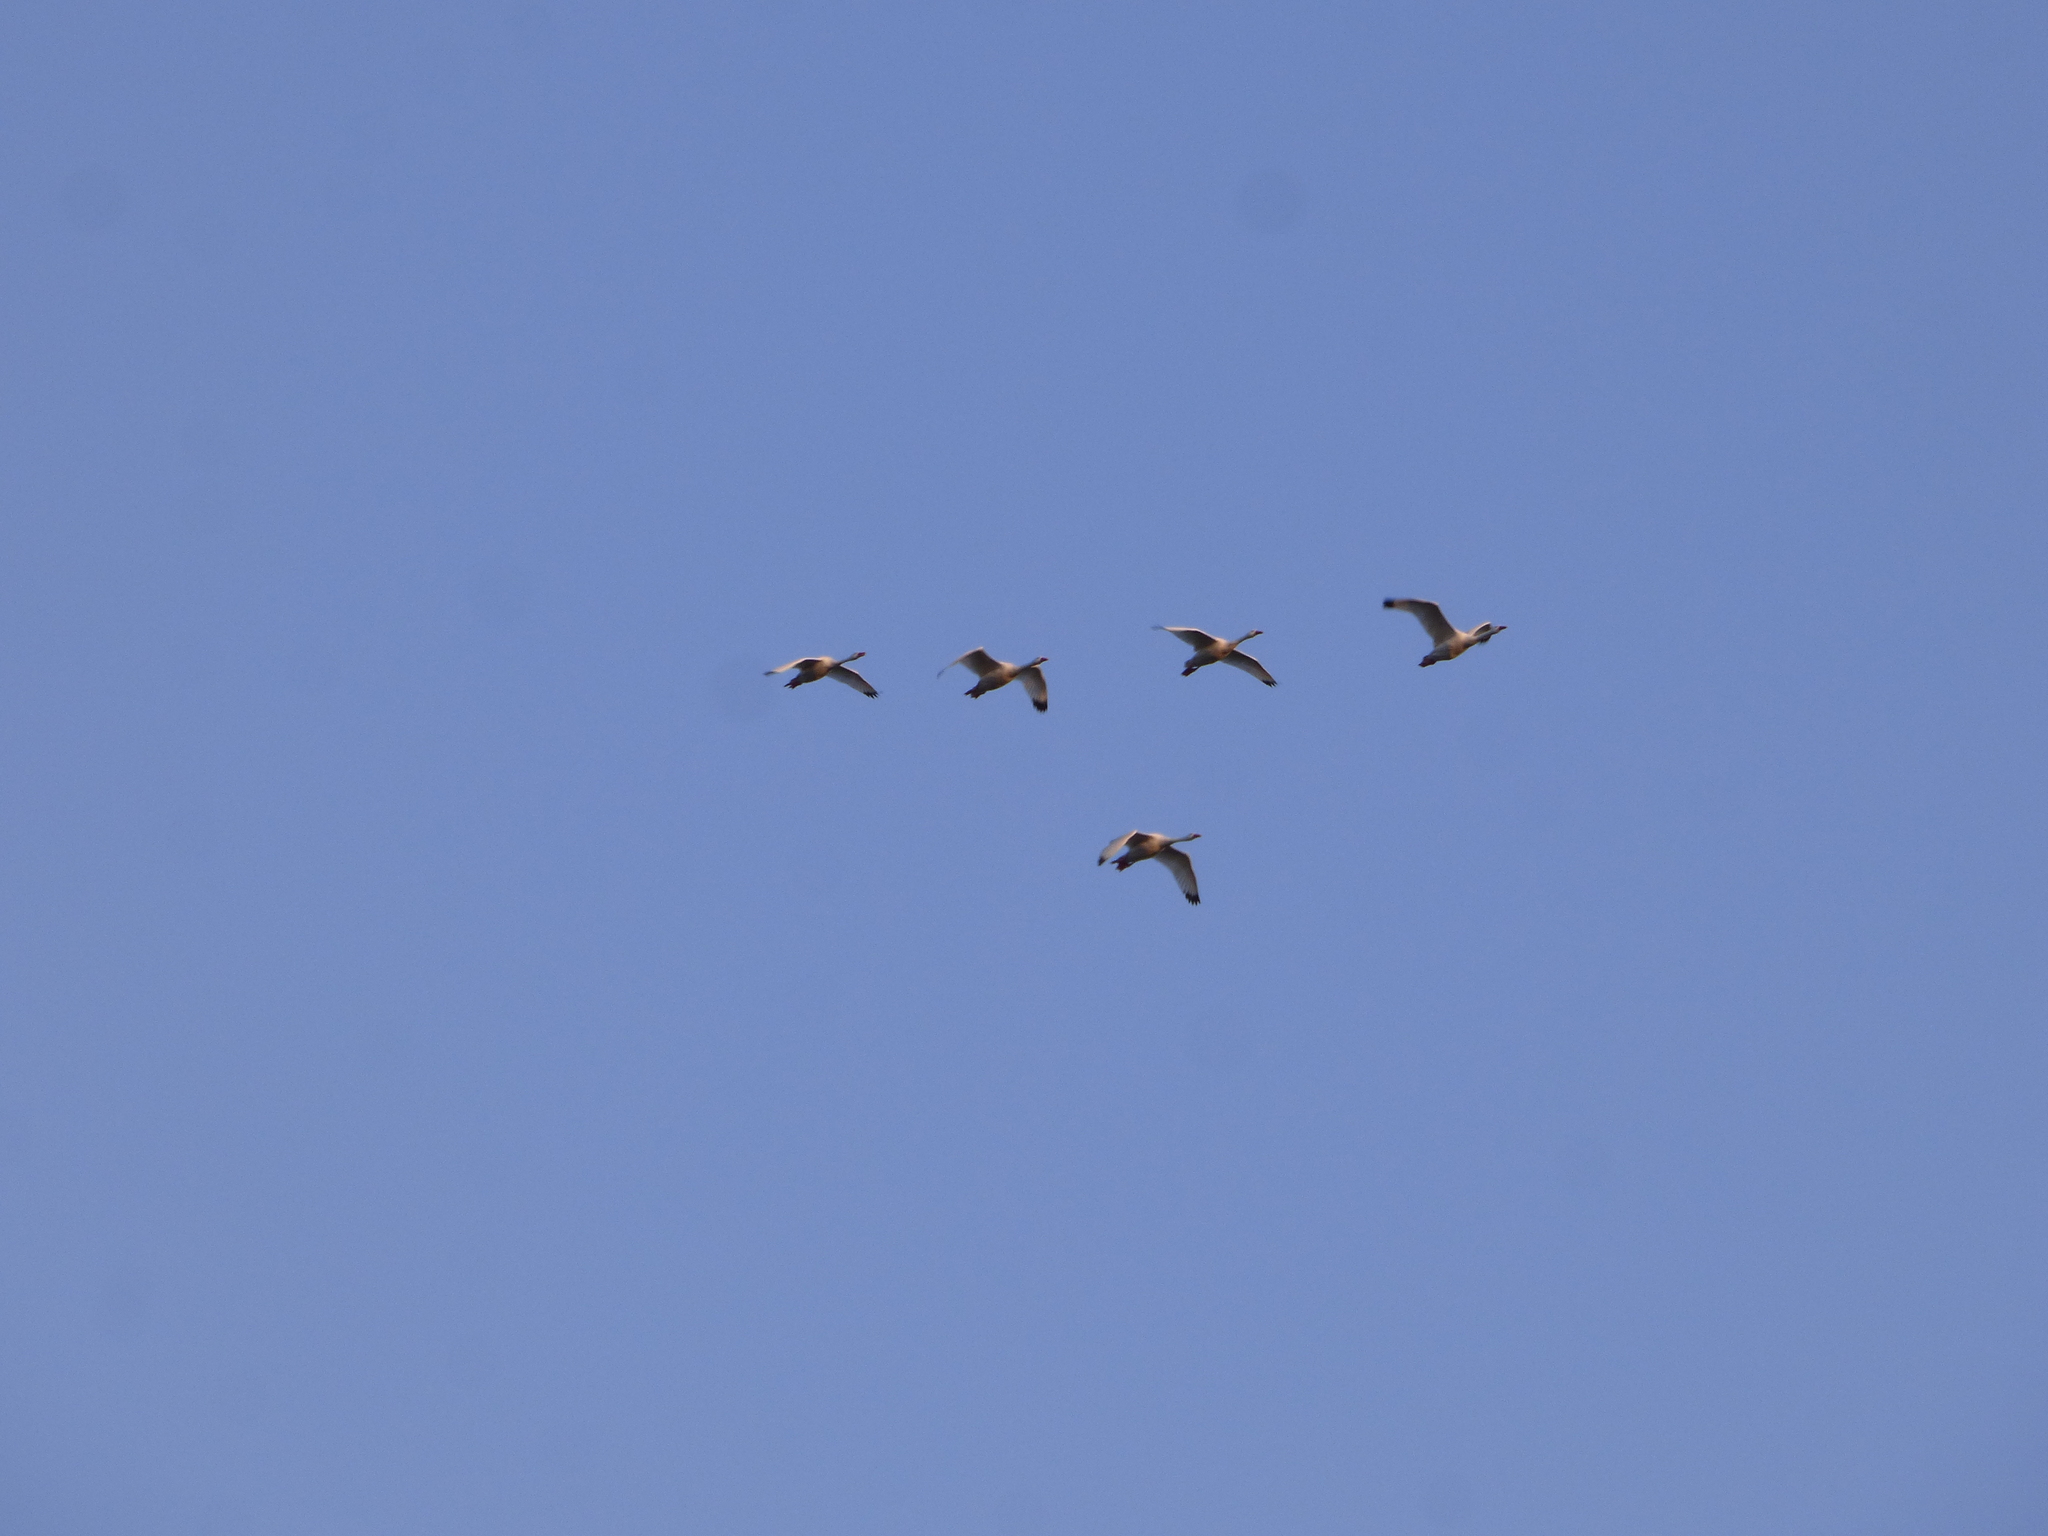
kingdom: Animalia
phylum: Chordata
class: Aves
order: Anseriformes
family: Anatidae
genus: Coscoroba
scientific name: Coscoroba coscoroba
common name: Coscoroba swan
